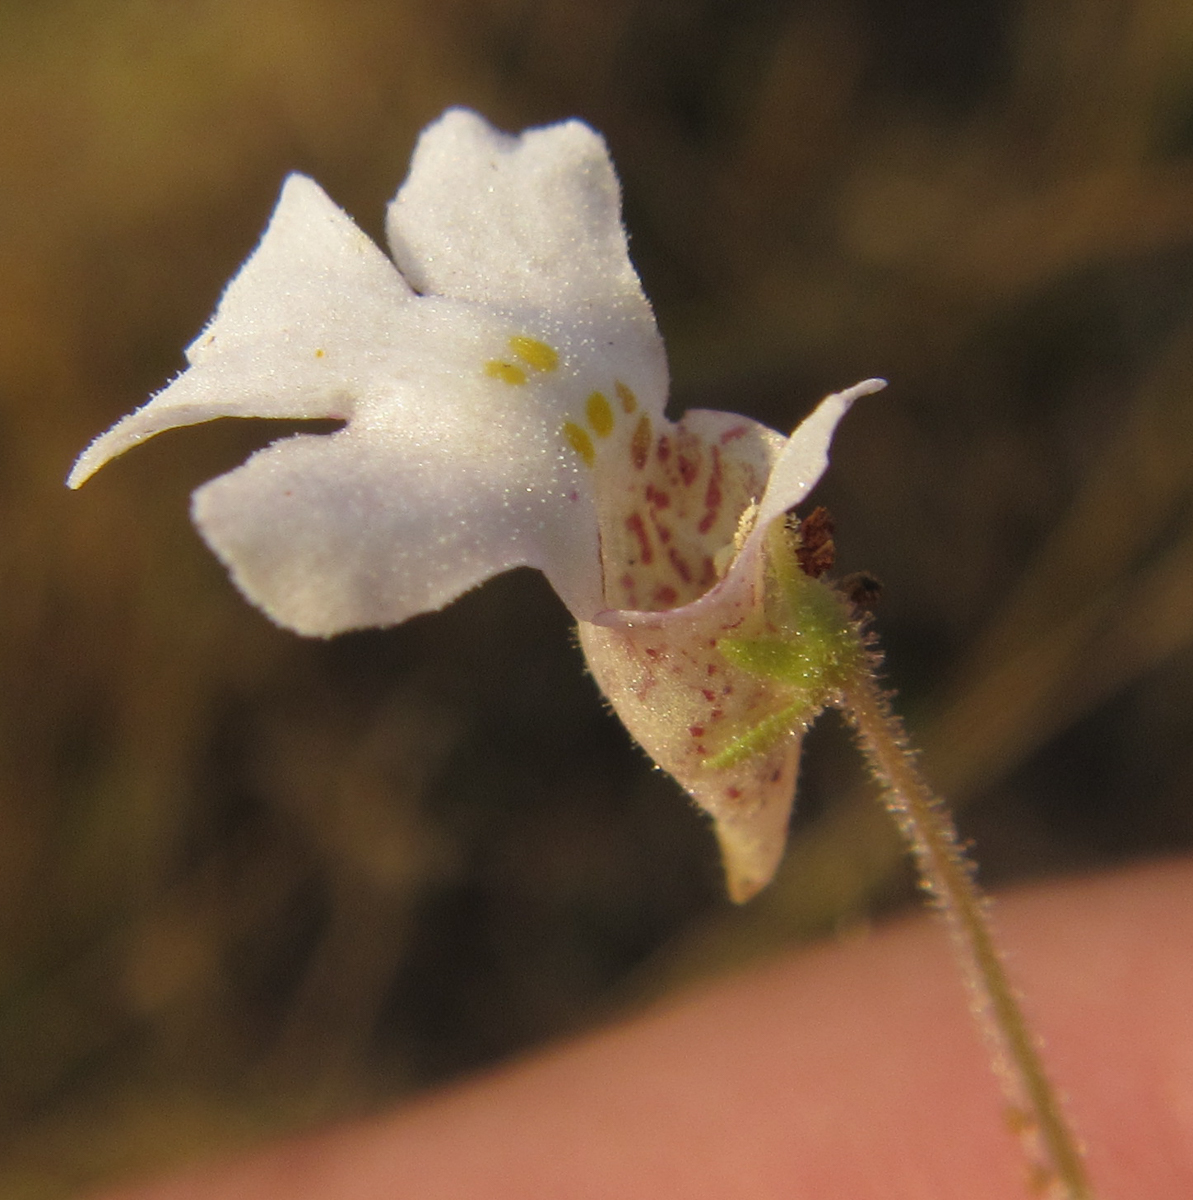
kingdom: Plantae
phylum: Tracheophyta
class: Magnoliopsida
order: Lamiales
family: Scrophulariaceae
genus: Diclis
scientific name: Diclis petiolaris
